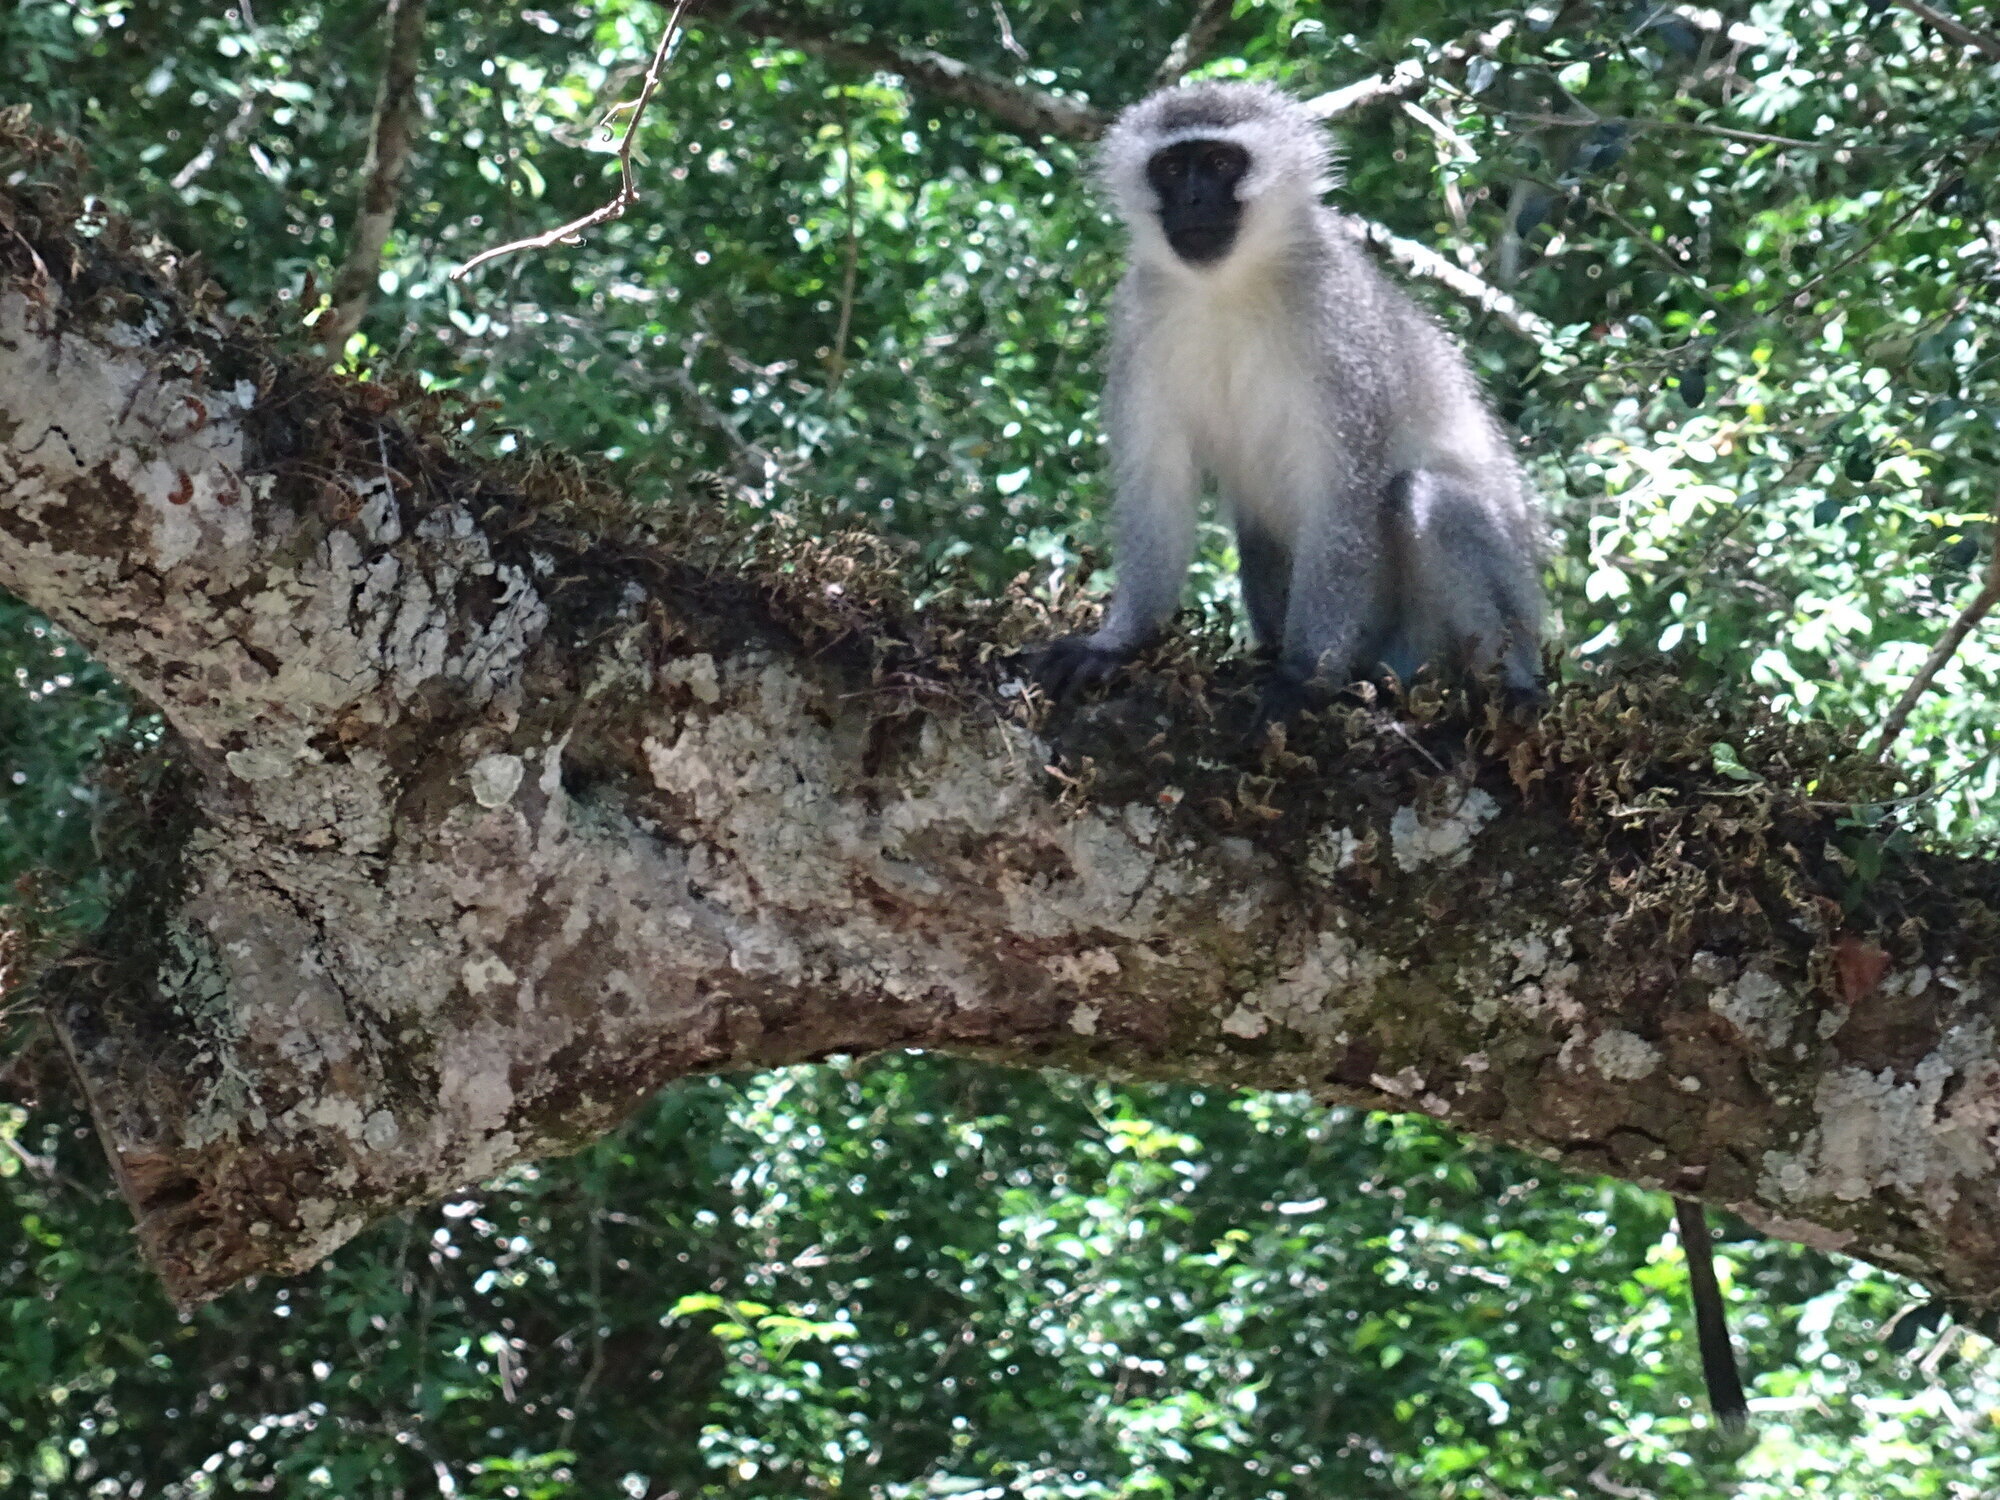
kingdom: Animalia
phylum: Chordata
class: Mammalia
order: Primates
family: Cercopithecidae
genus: Chlorocebus
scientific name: Chlorocebus pygerythrus
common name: Vervet monkey
